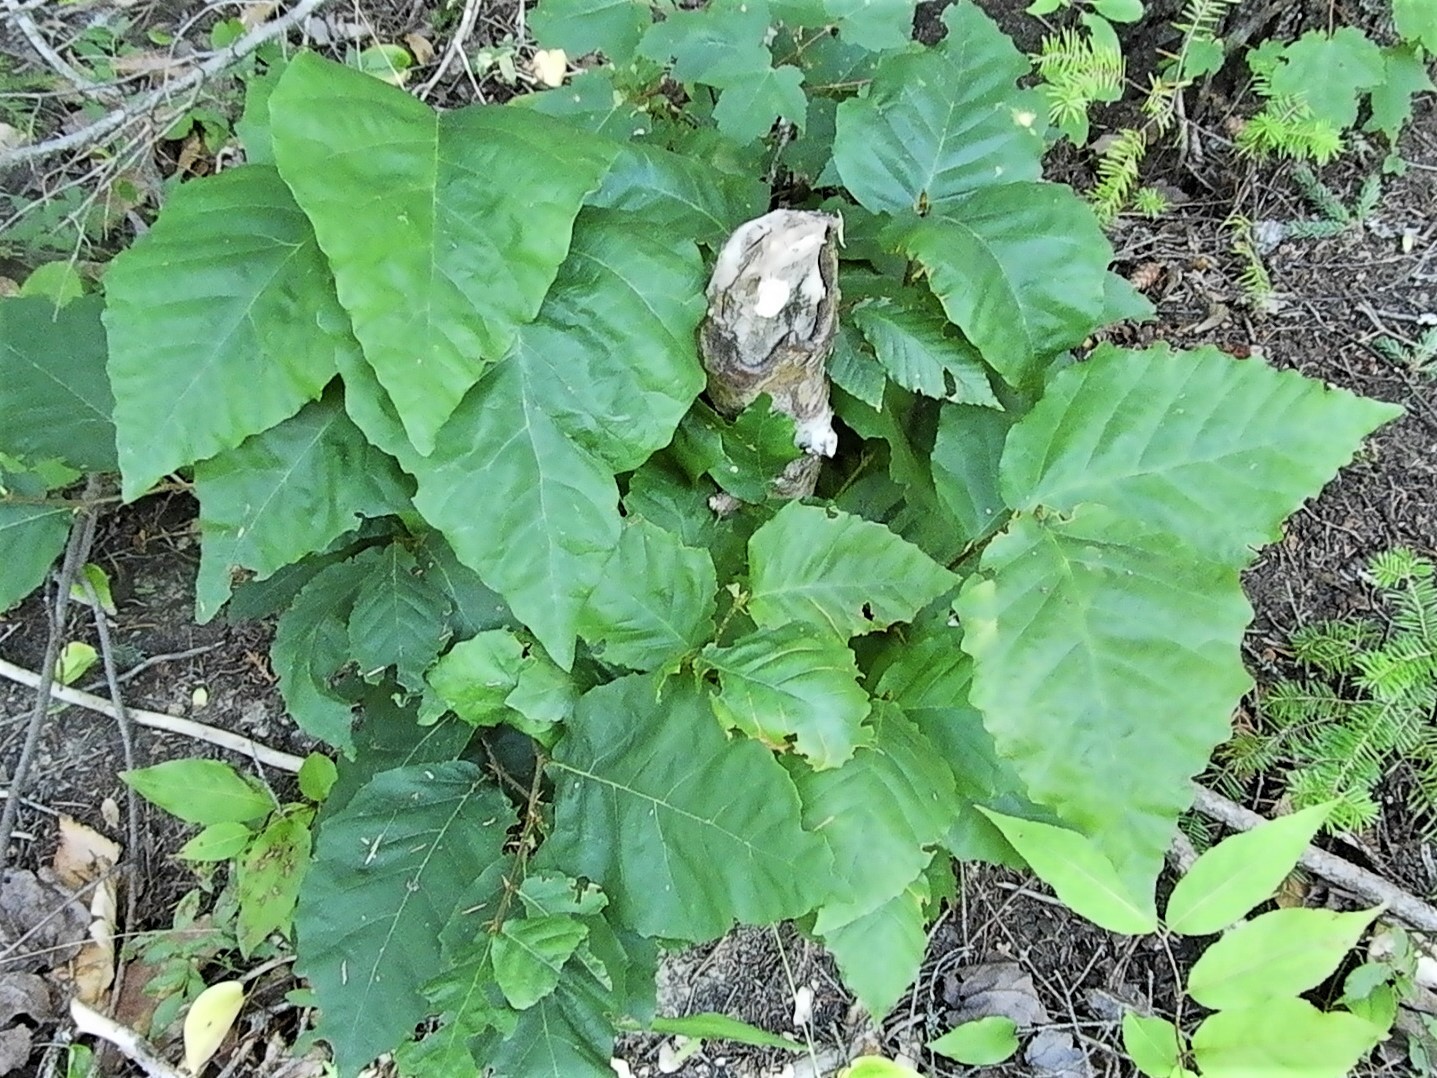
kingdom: Plantae
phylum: Tracheophyta
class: Magnoliopsida
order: Fagales
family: Fagaceae
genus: Fagus
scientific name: Fagus grandifolia
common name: American beech
